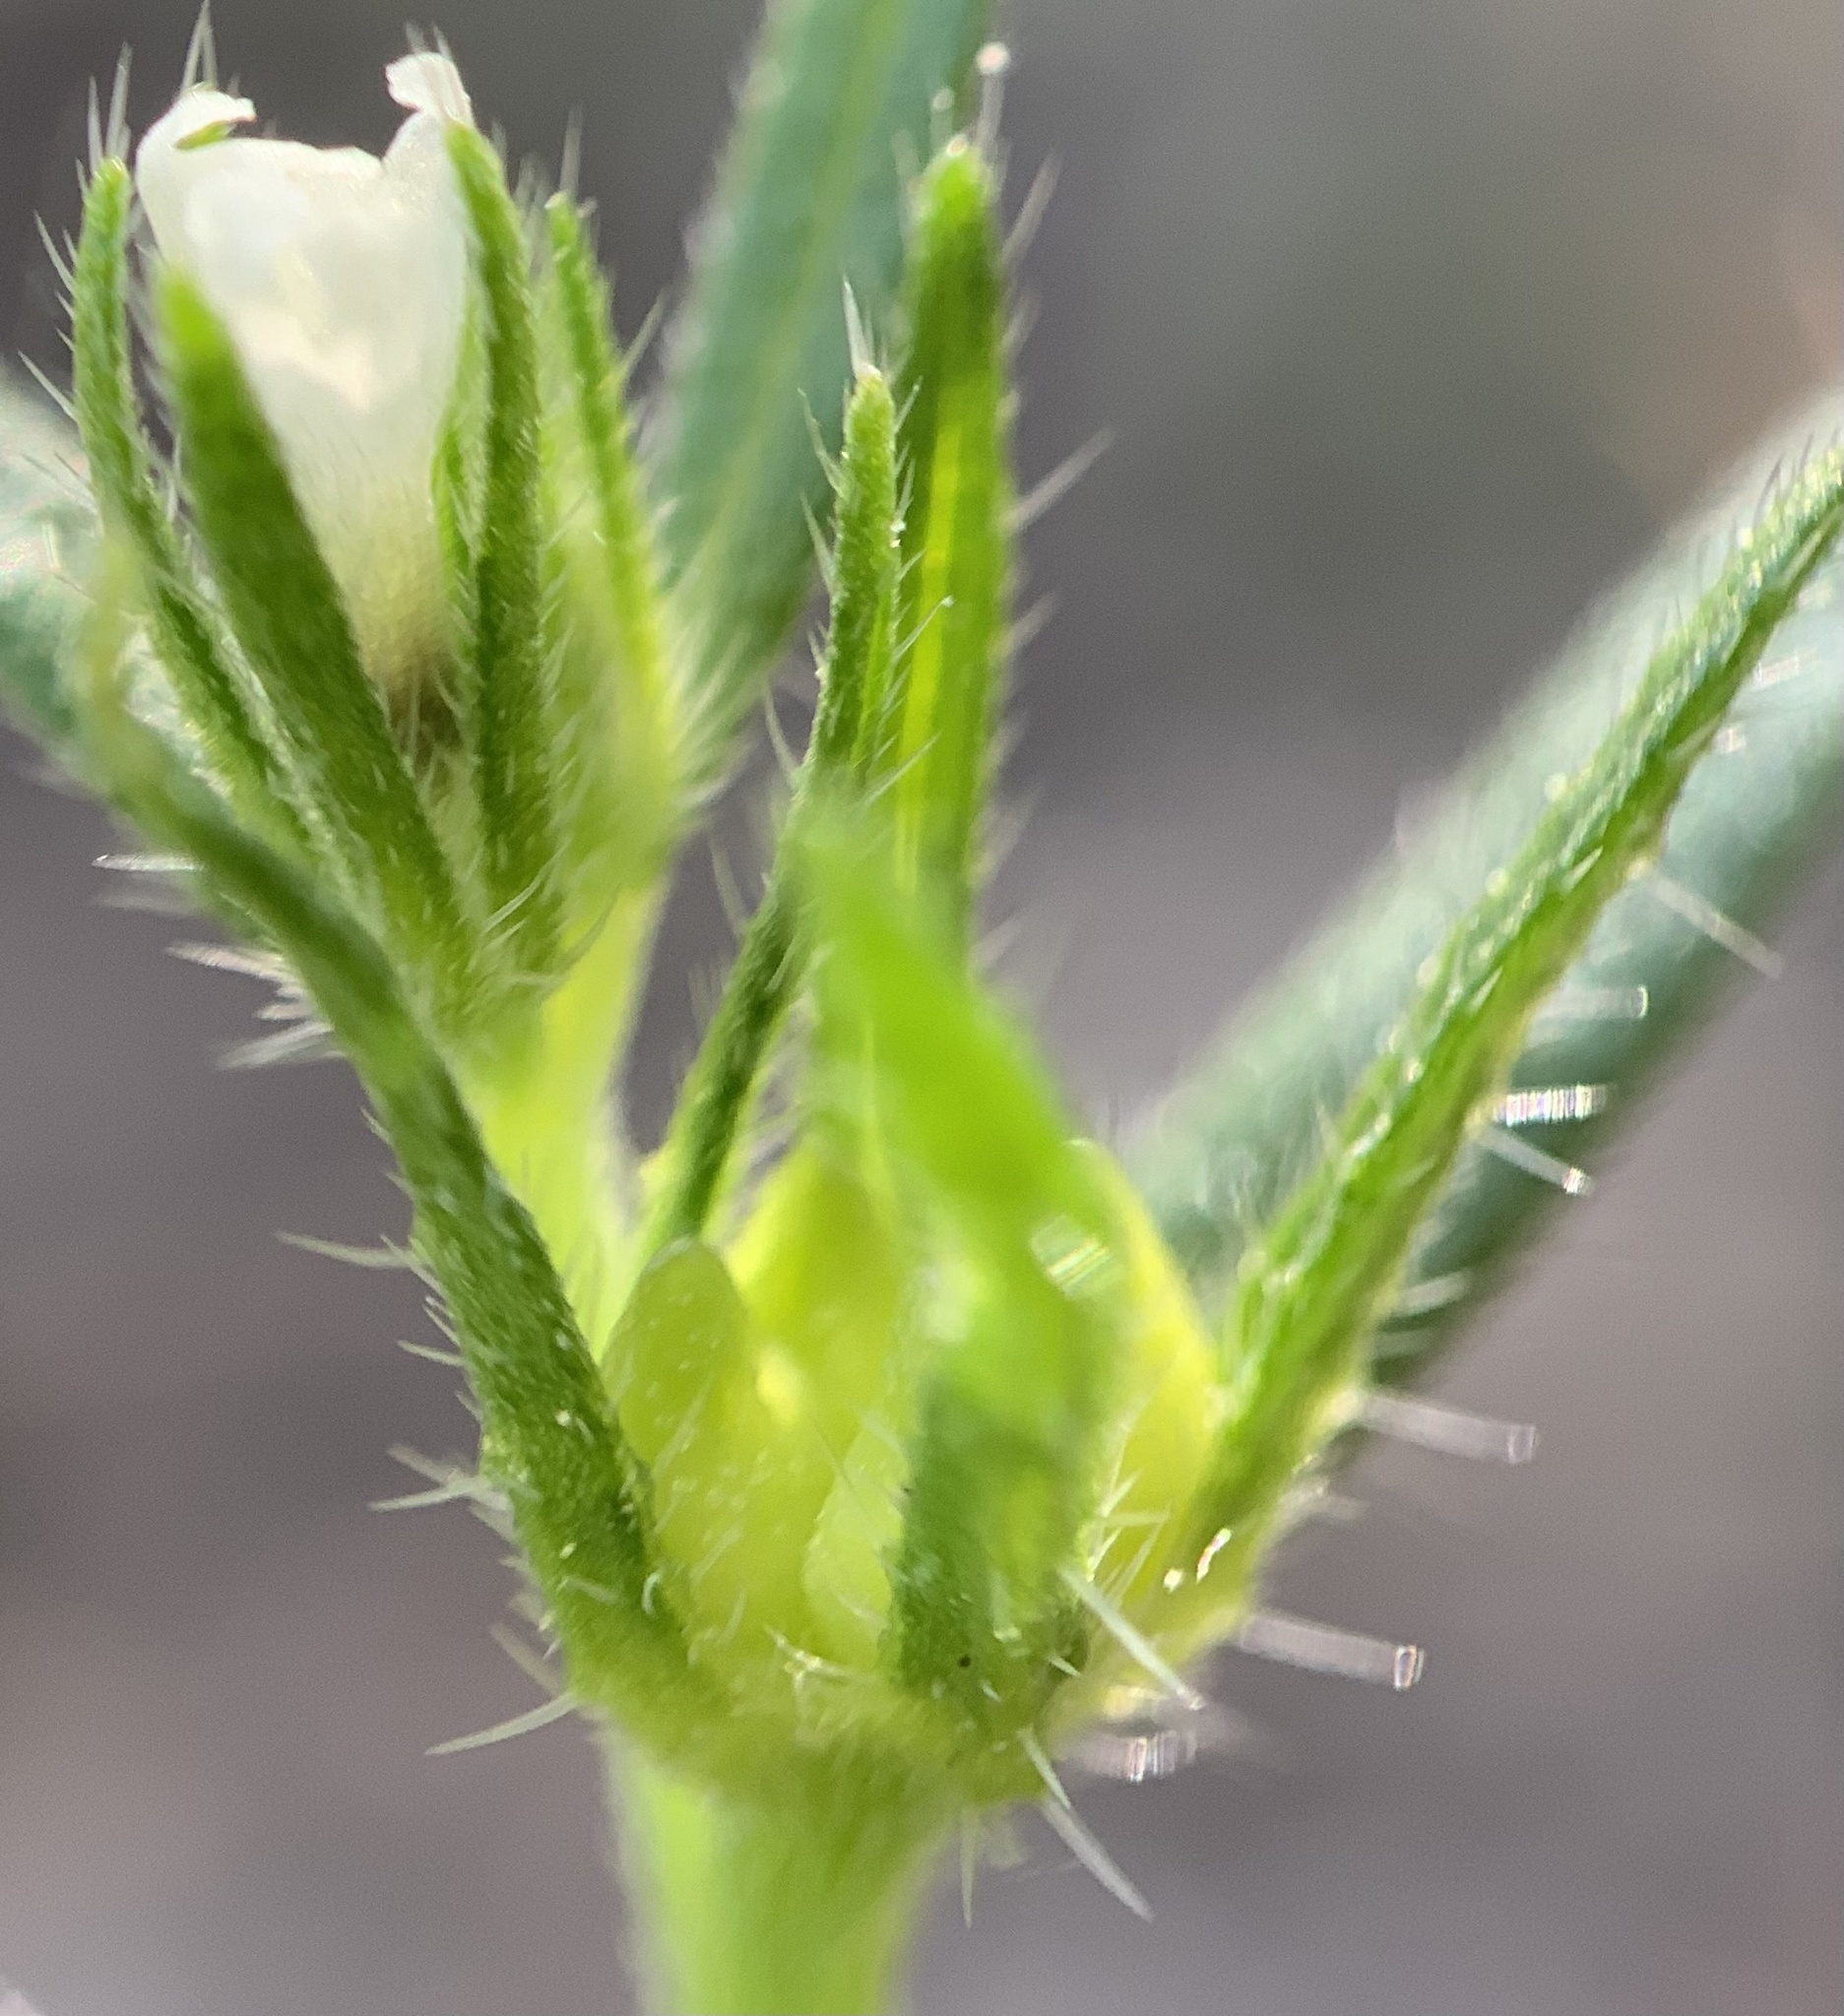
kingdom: Plantae
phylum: Tracheophyta
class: Magnoliopsida
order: Boraginales
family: Boraginaceae
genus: Buglossoides
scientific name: Buglossoides arvensis
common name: Corn gromwell
